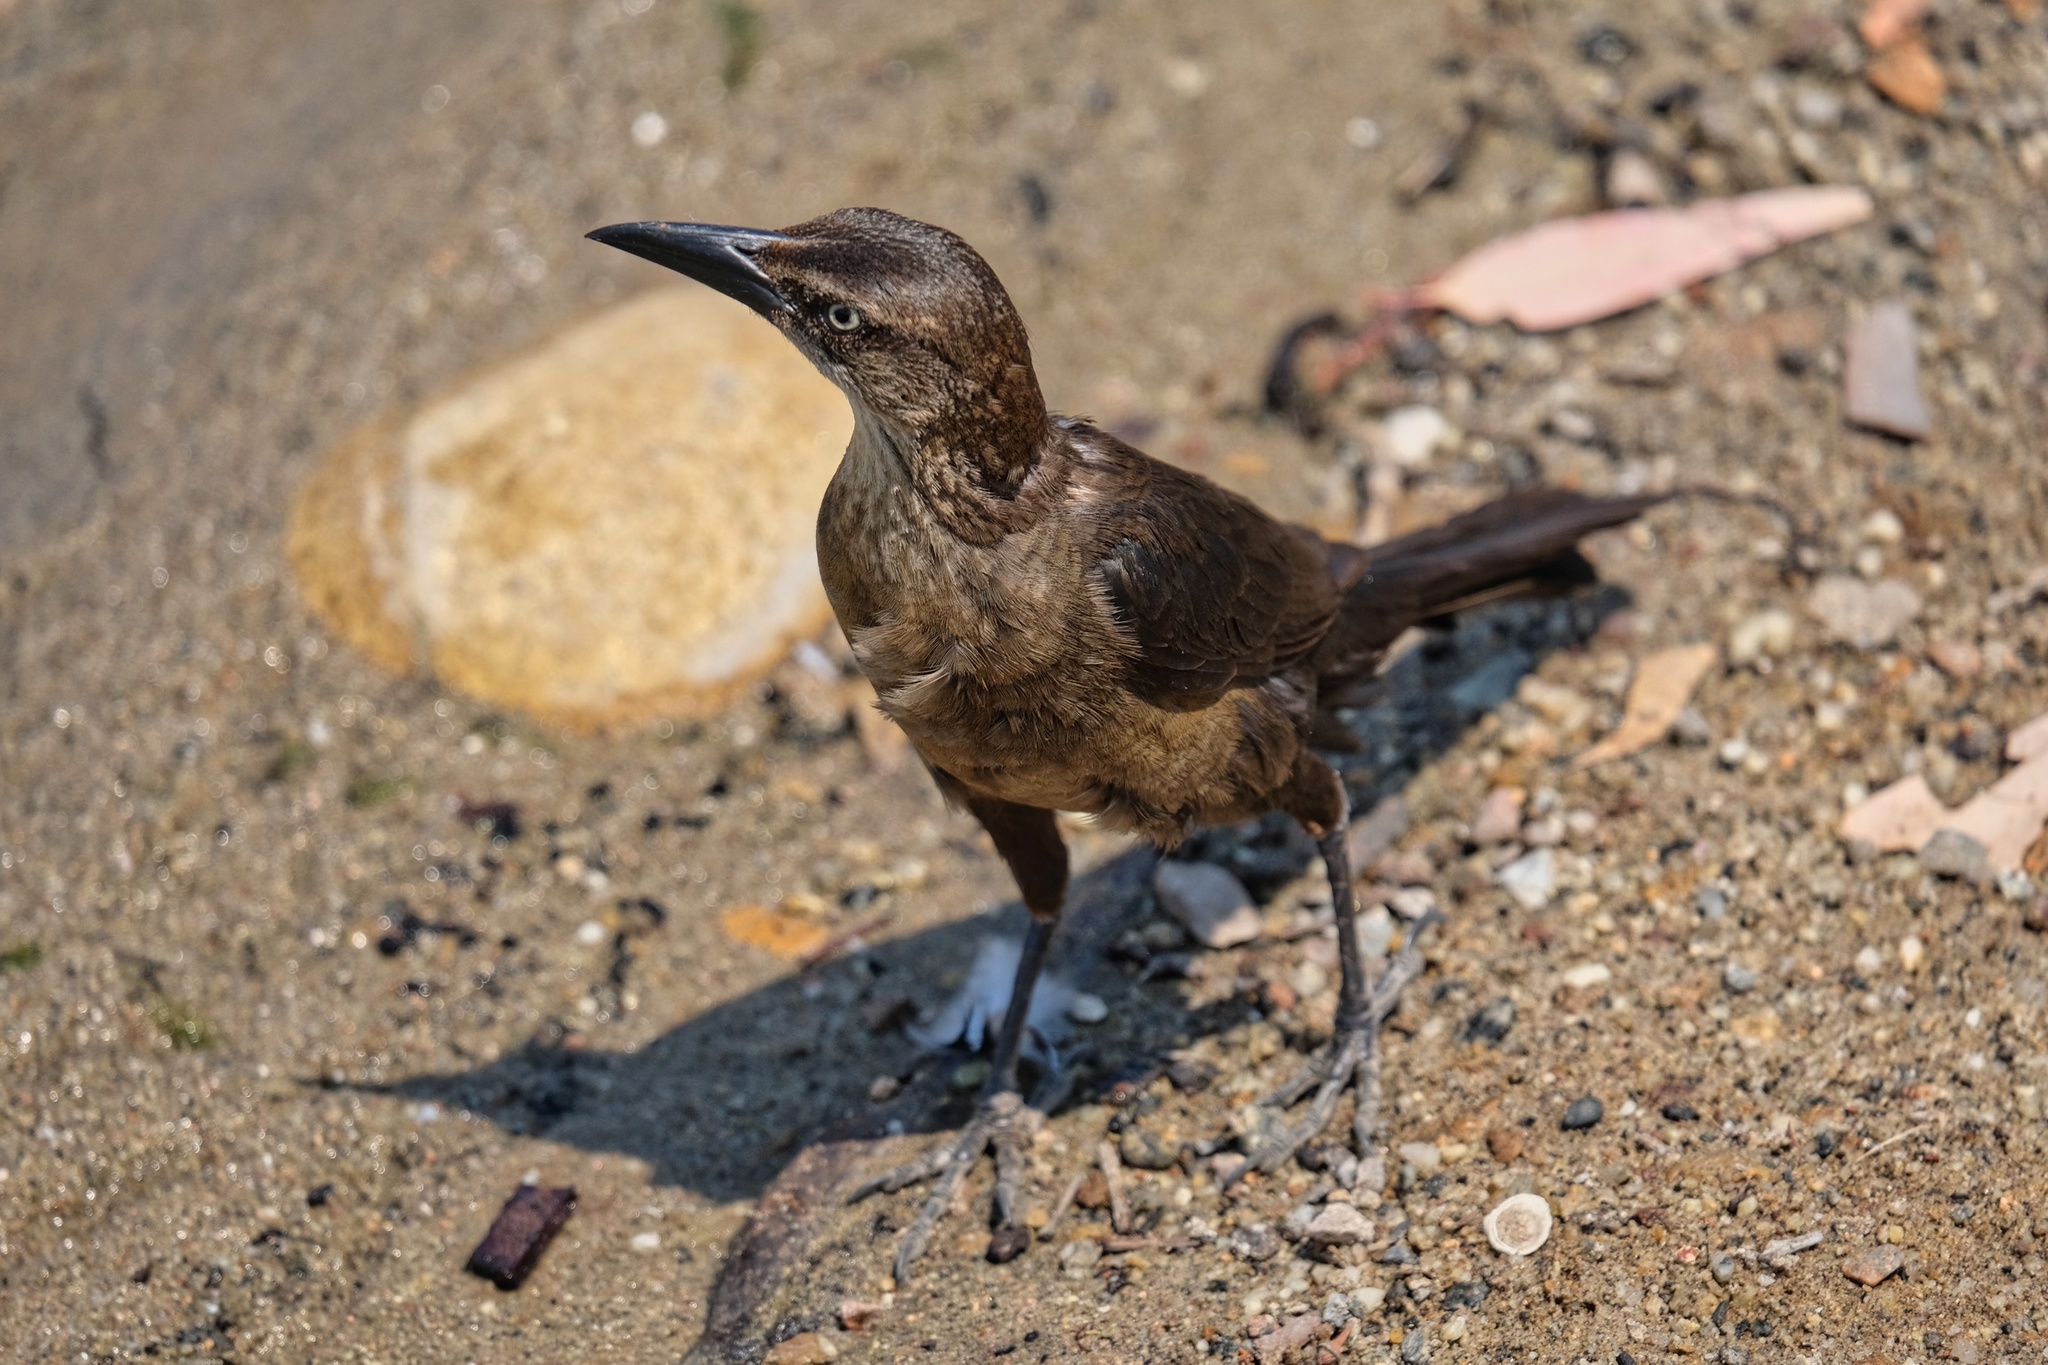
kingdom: Animalia
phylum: Chordata
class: Aves
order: Passeriformes
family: Icteridae
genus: Quiscalus
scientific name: Quiscalus mexicanus
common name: Great-tailed grackle
